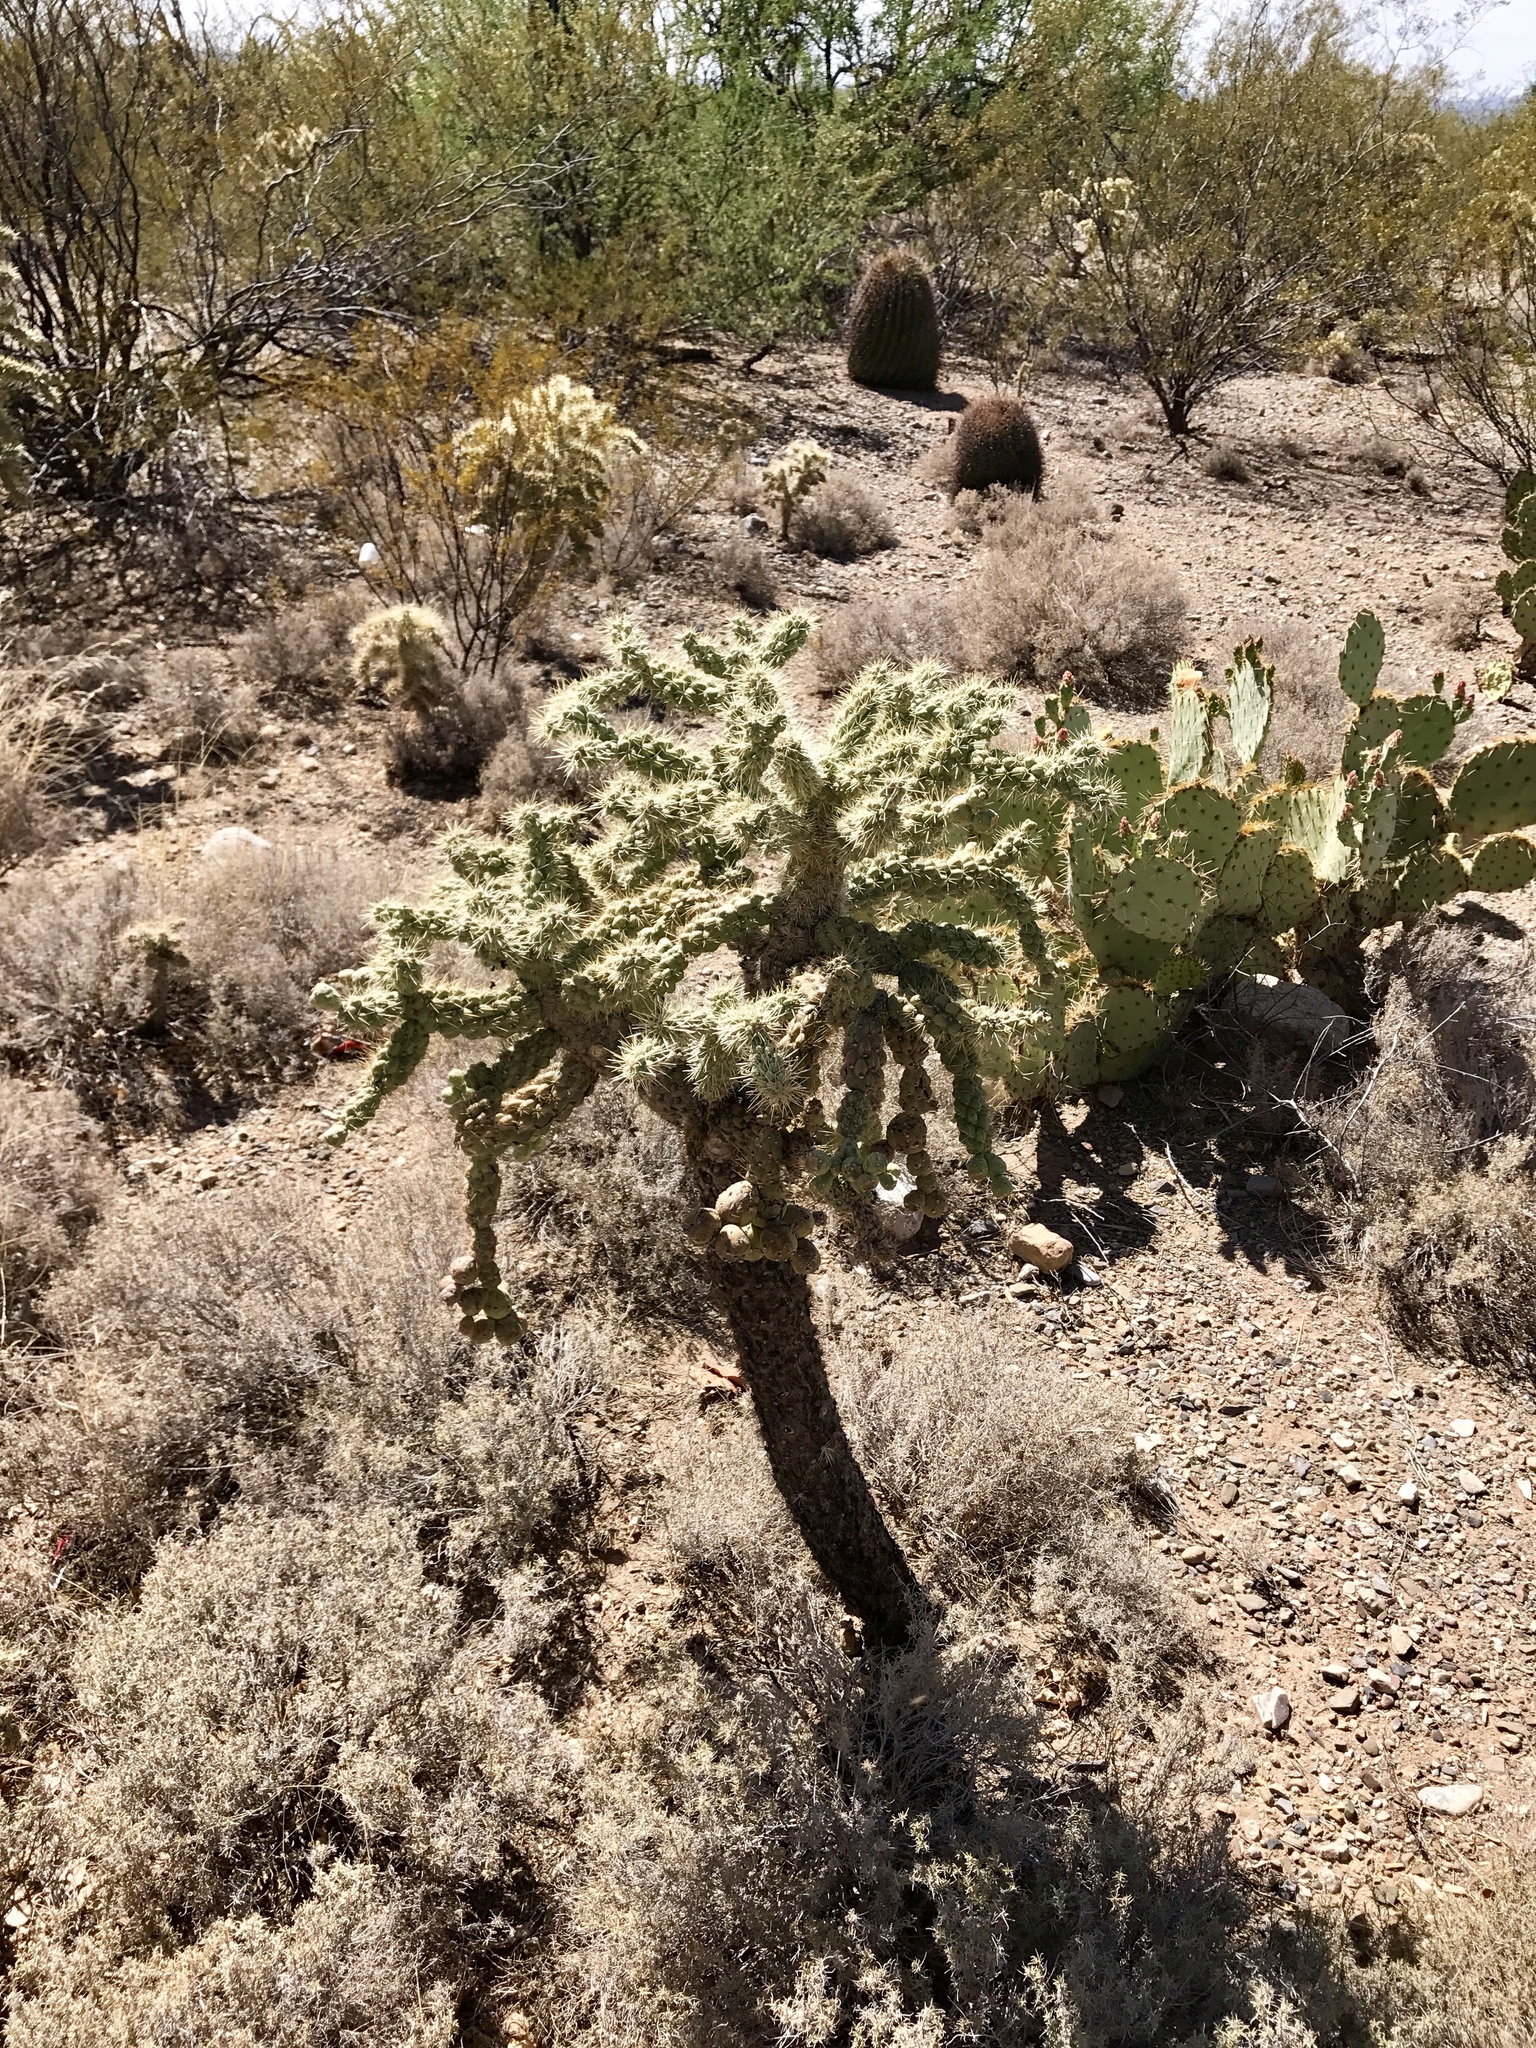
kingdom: Plantae
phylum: Tracheophyta
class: Magnoliopsida
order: Caryophyllales
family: Cactaceae
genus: Cylindropuntia
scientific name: Cylindropuntia fulgida
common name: Jumping cholla
